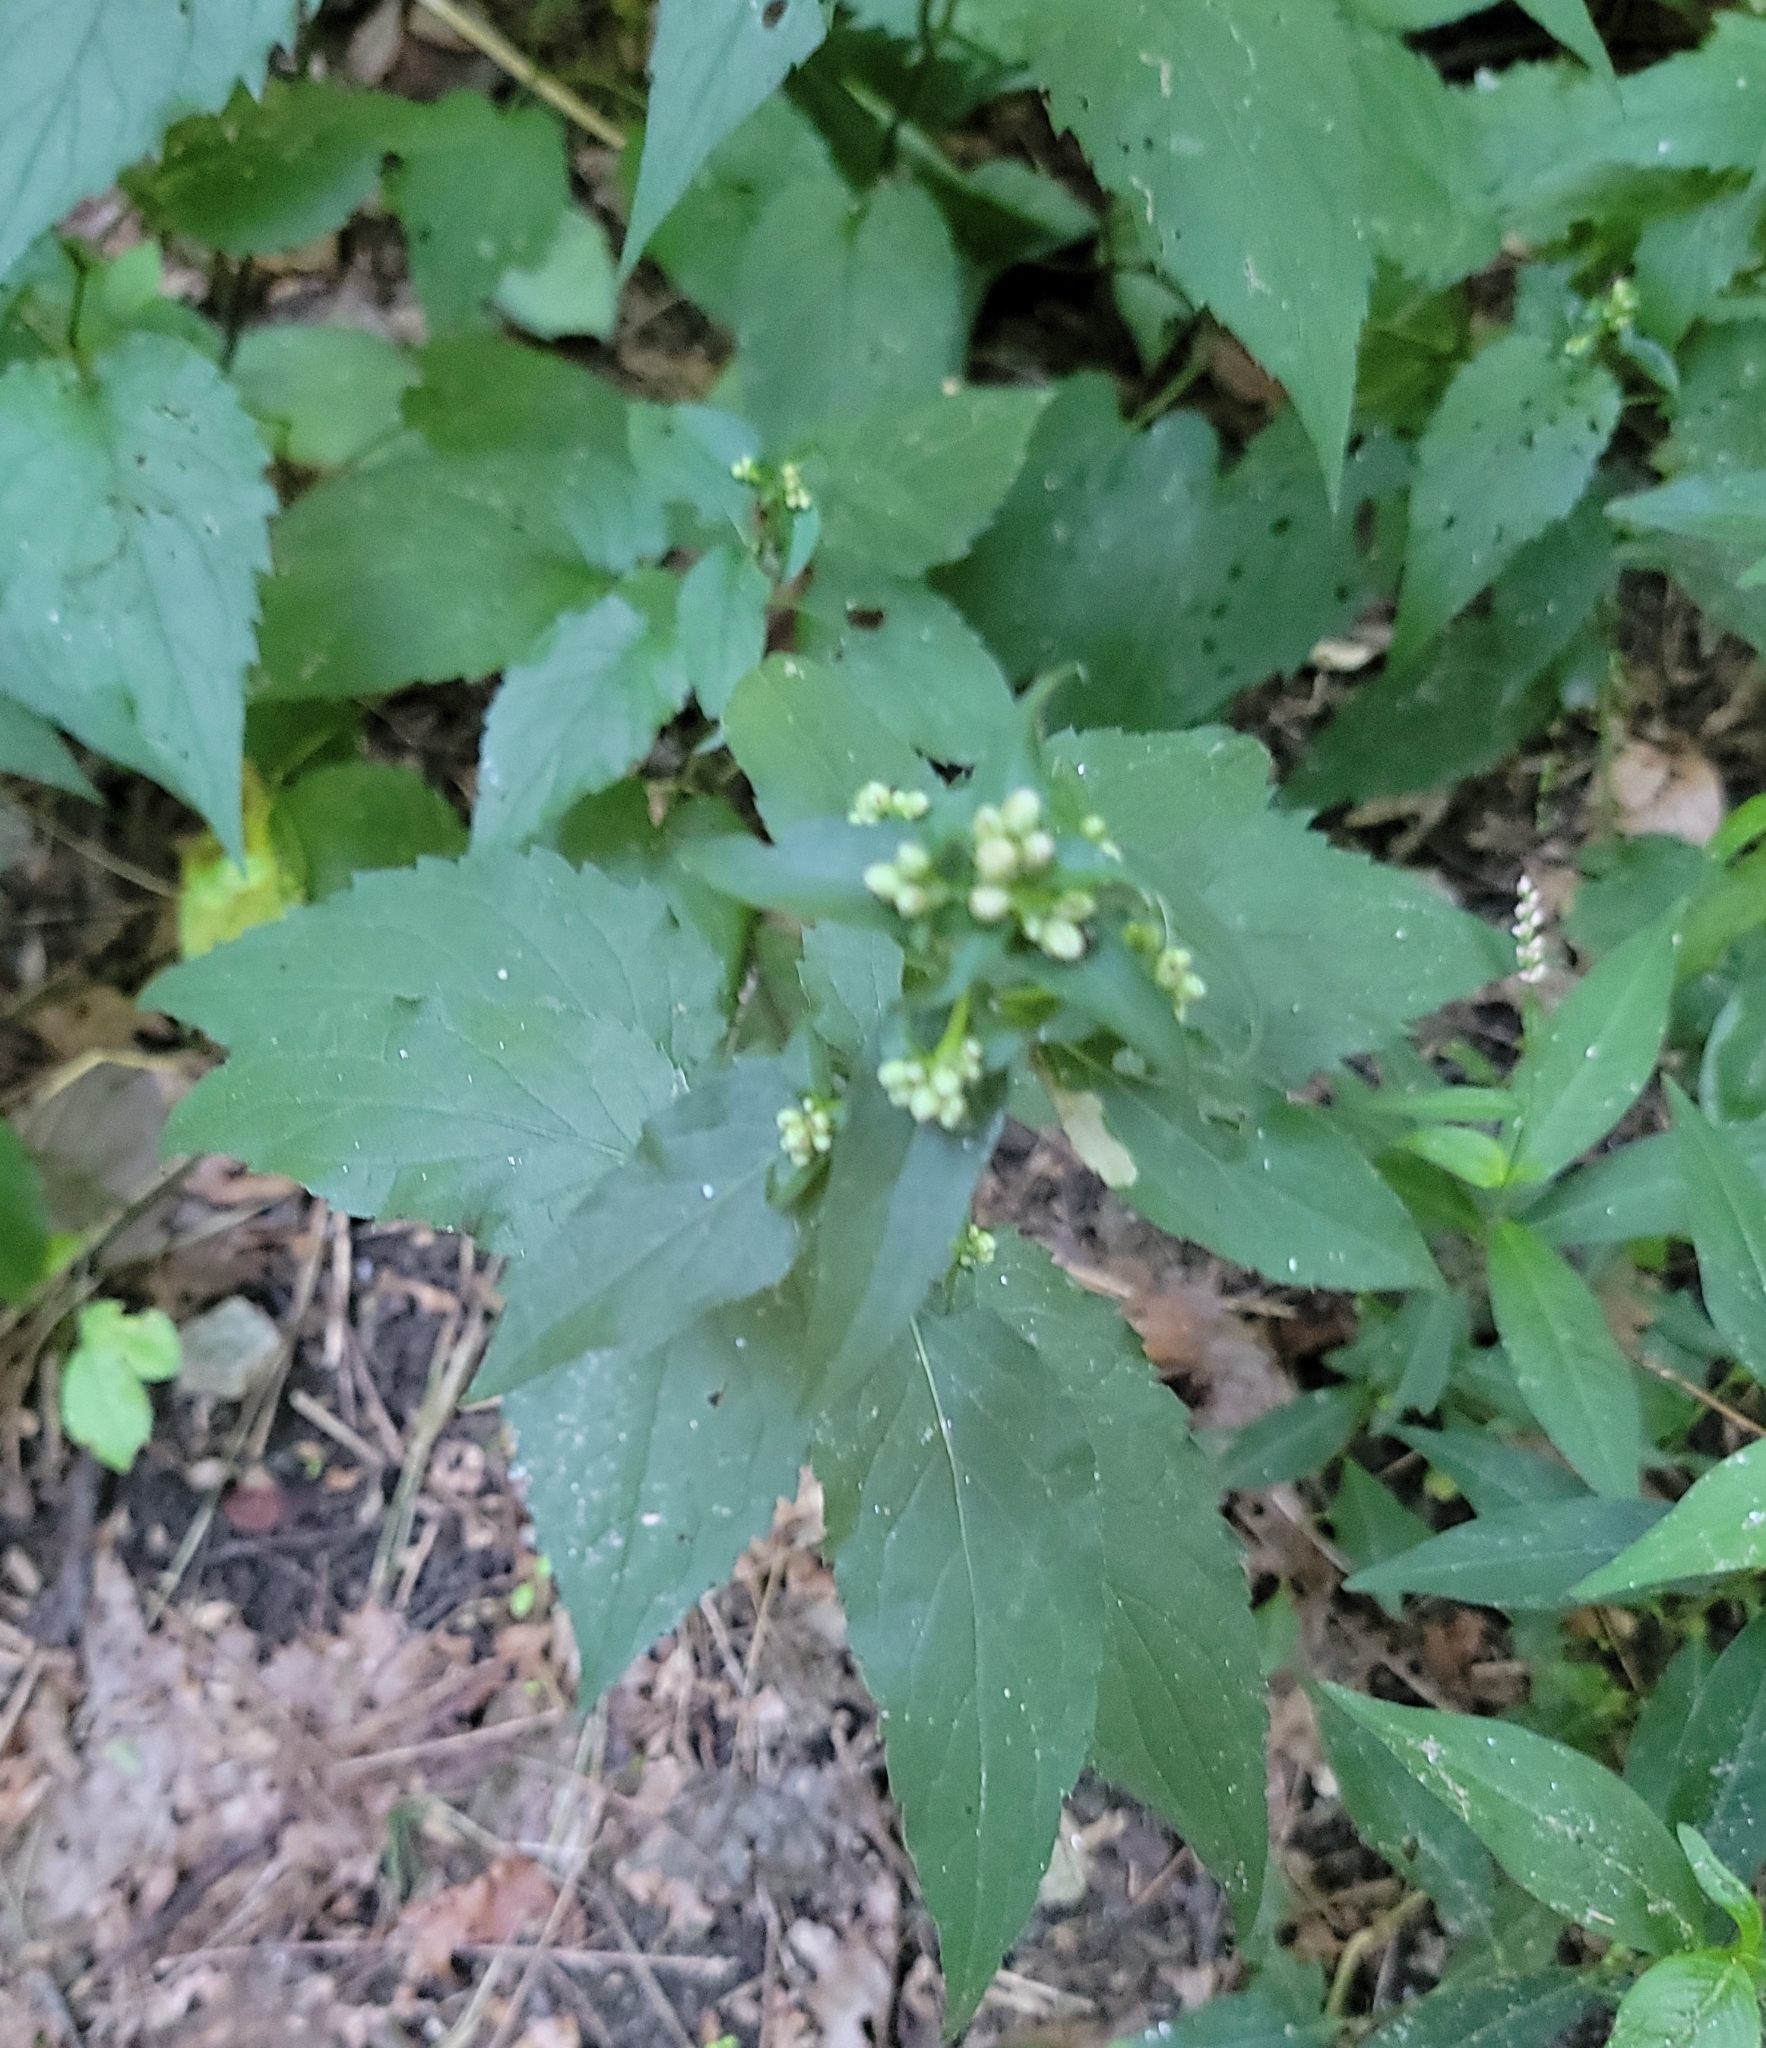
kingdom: Plantae
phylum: Tracheophyta
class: Magnoliopsida
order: Asterales
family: Asteraceae
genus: Eurybia
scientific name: Eurybia divaricata
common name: White wood aster
